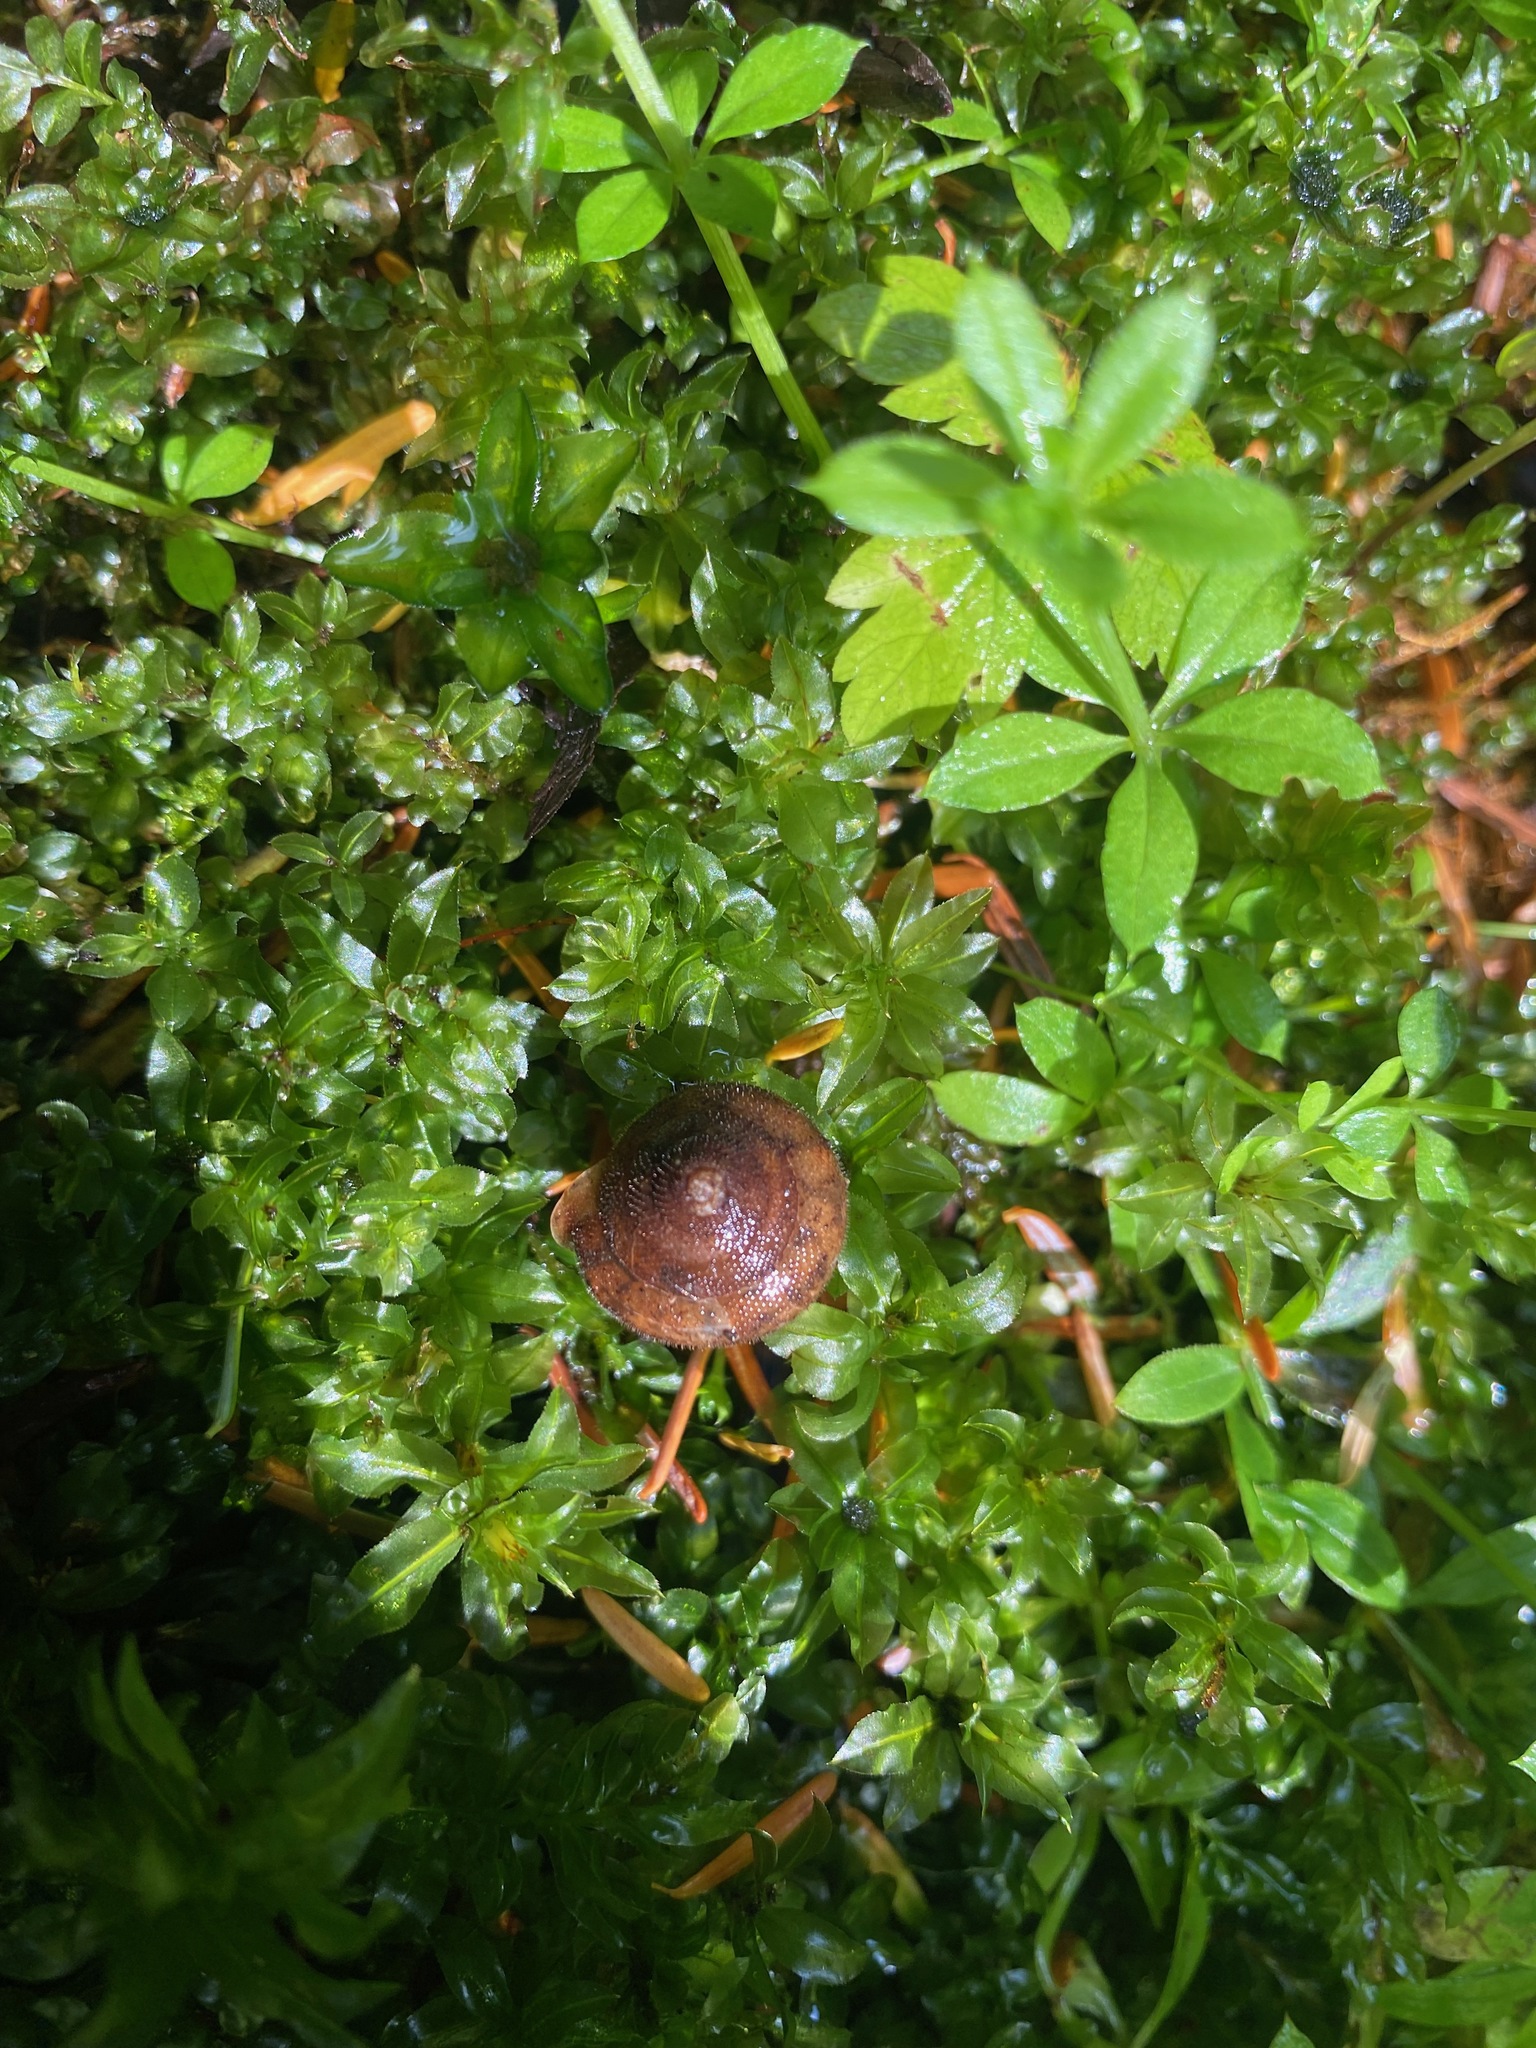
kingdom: Animalia
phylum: Mollusca
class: Gastropoda
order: Stylommatophora
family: Polygyridae
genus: Vespericola
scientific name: Vespericola columbianus
